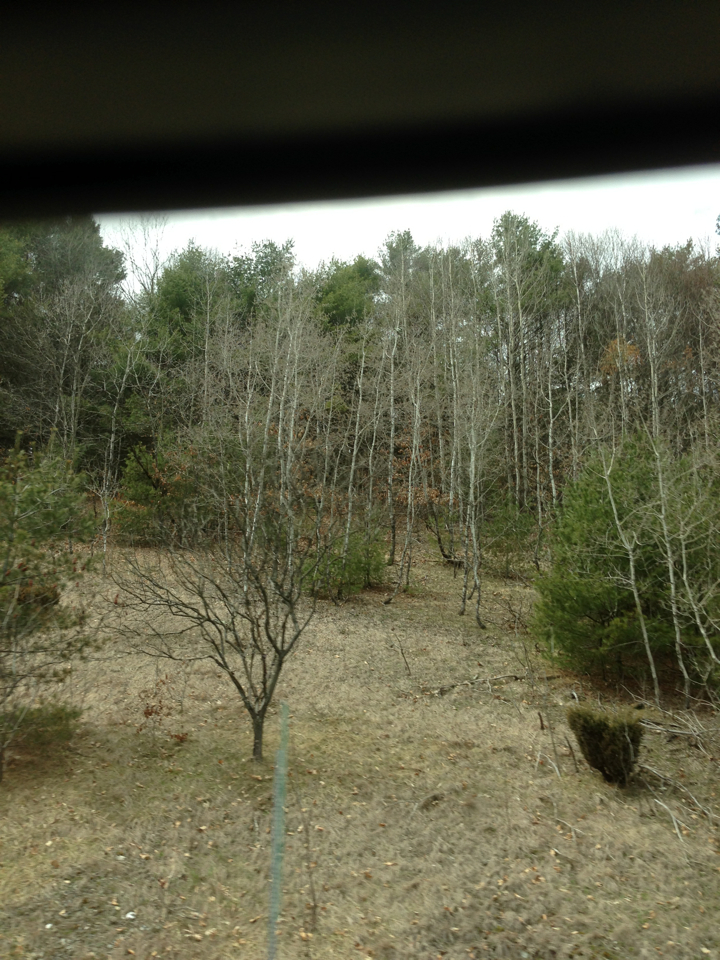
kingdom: Plantae
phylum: Tracheophyta
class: Magnoliopsida
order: Malpighiales
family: Salicaceae
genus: Populus
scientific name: Populus tremuloides
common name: Quaking aspen
